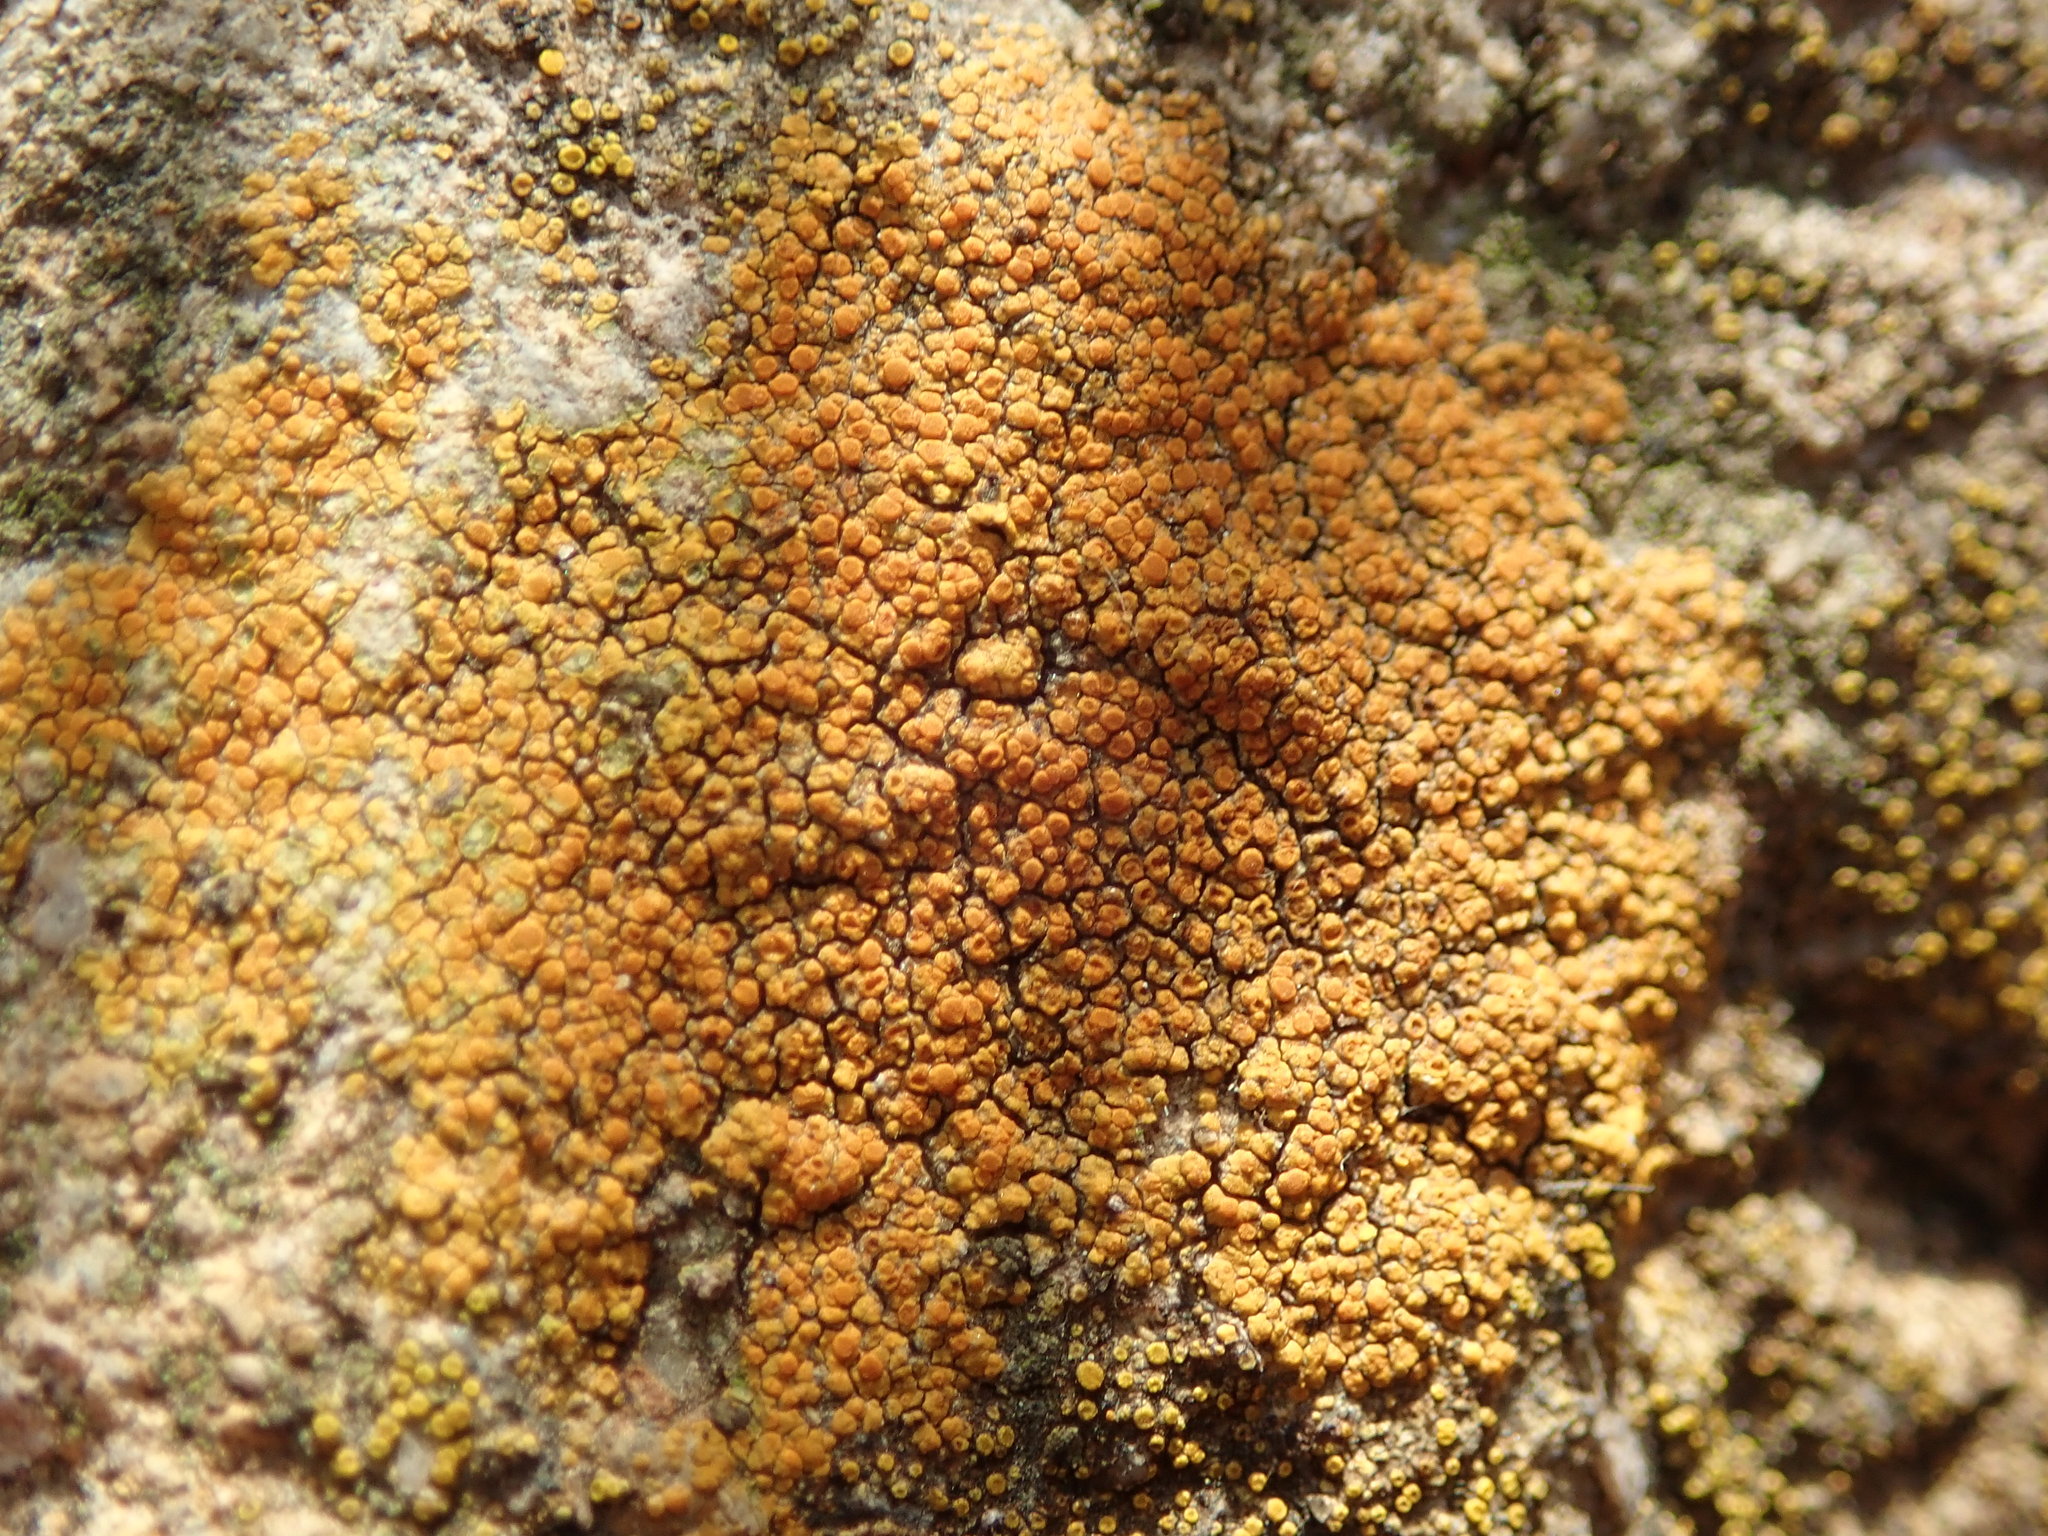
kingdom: Fungi
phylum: Ascomycota
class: Lecanoromycetes
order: Teloschistales
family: Teloschistaceae
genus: Squamulea
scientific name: Squamulea subsoluta
